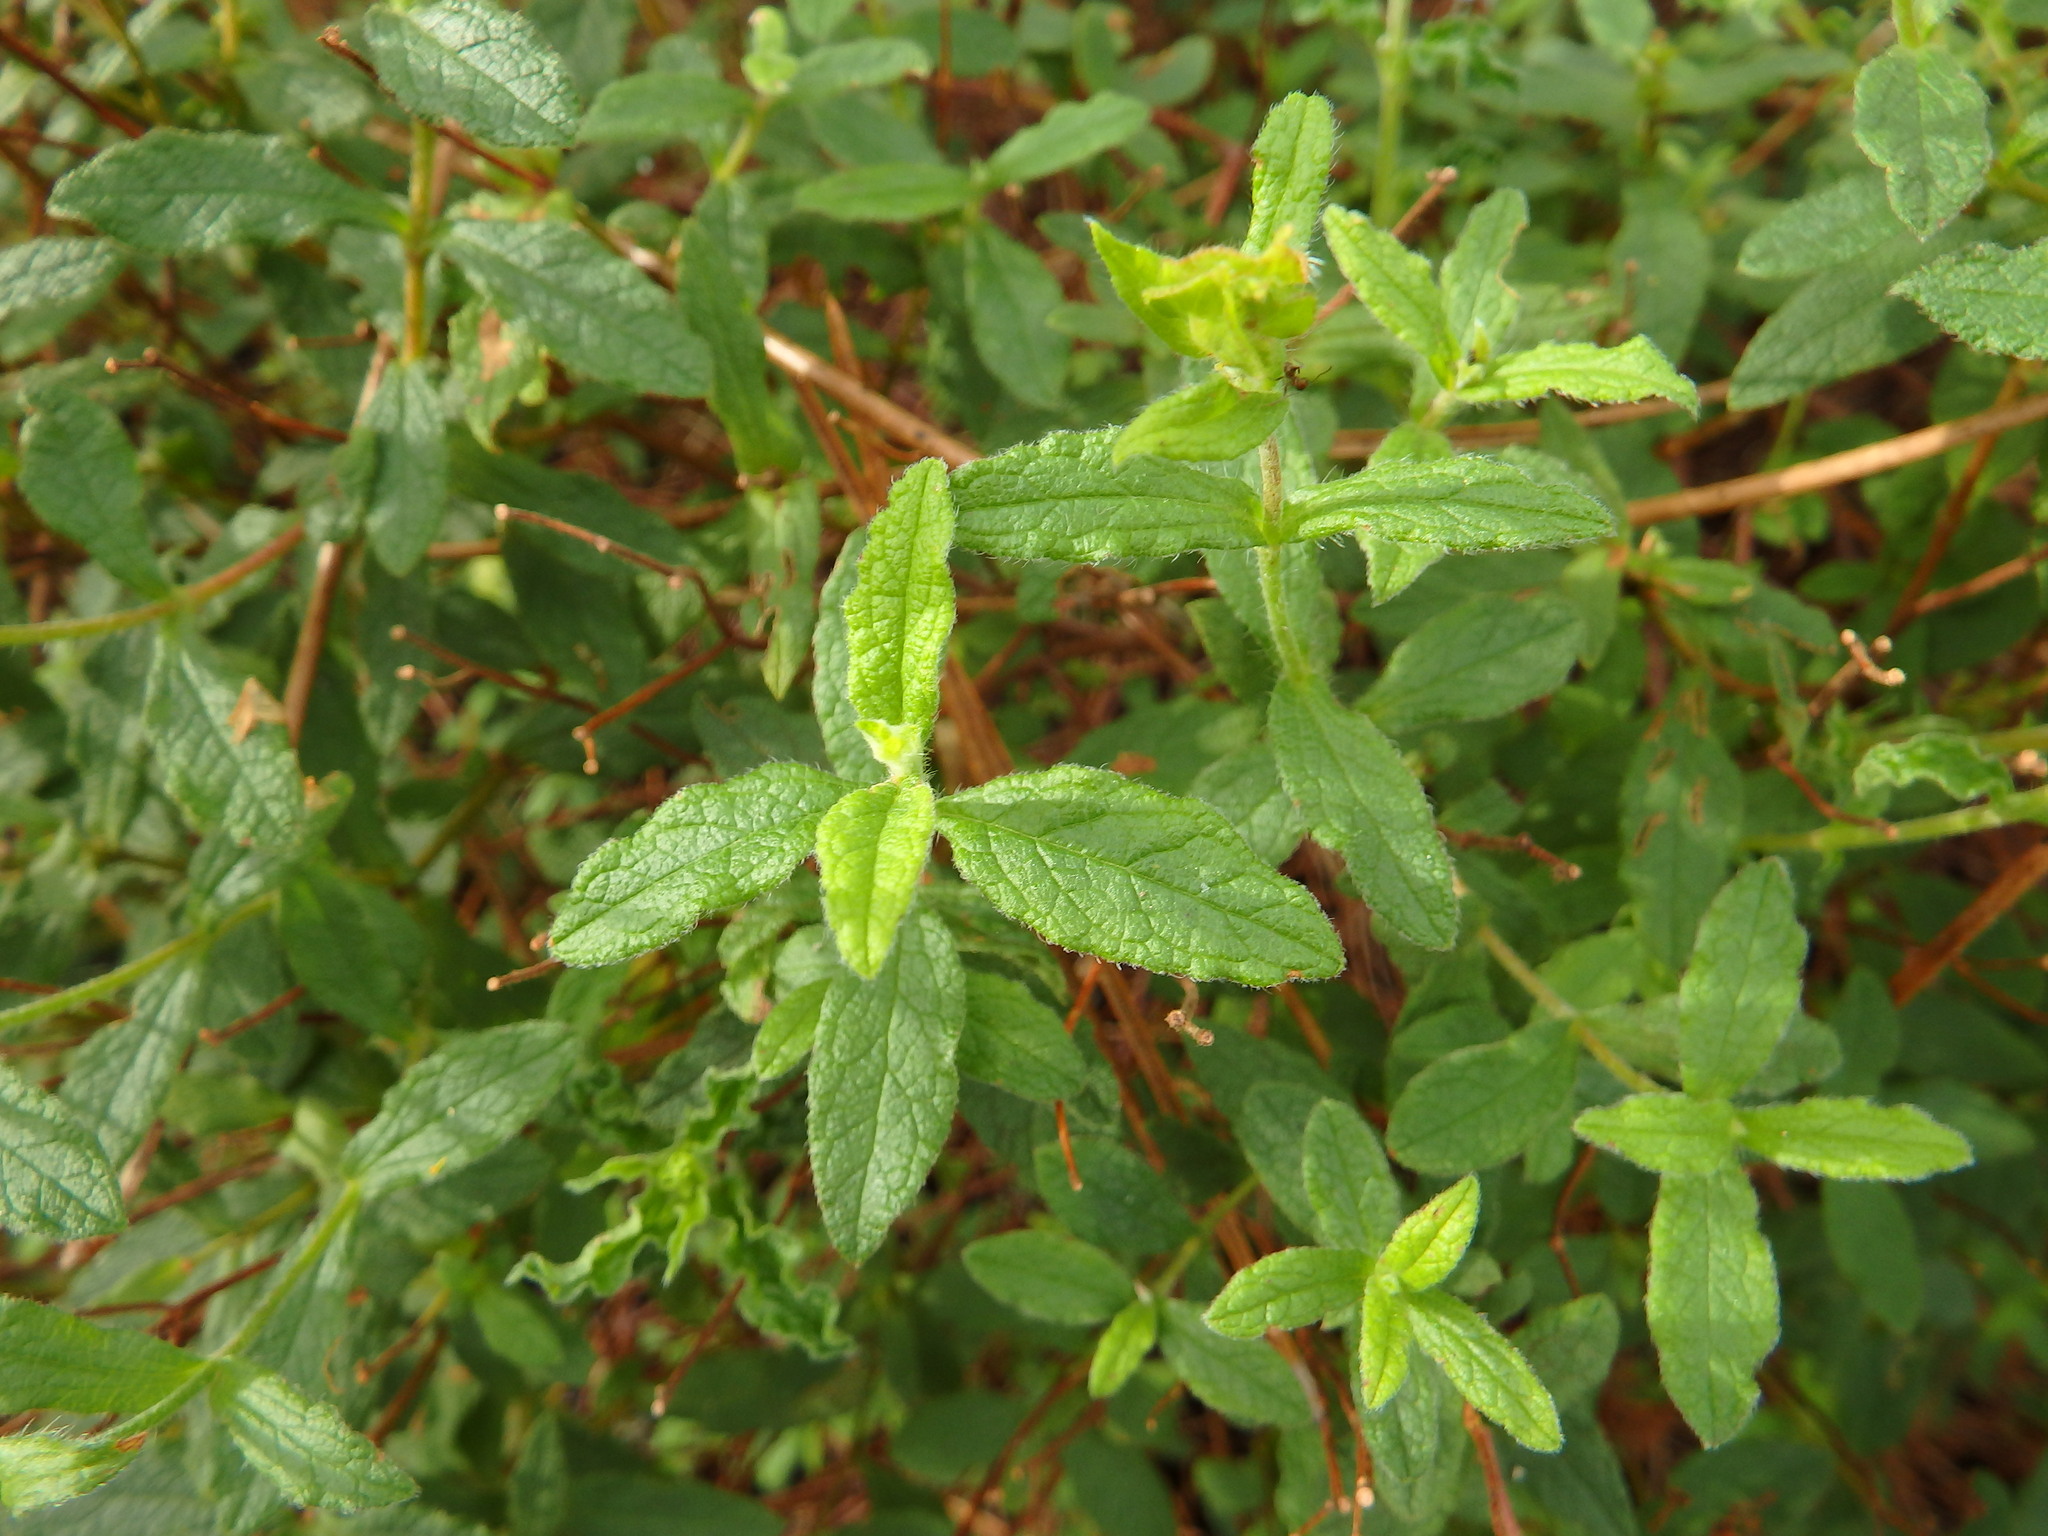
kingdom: Plantae
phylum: Tracheophyta
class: Magnoliopsida
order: Malvales
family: Cistaceae
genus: Cistus
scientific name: Cistus inflatus
